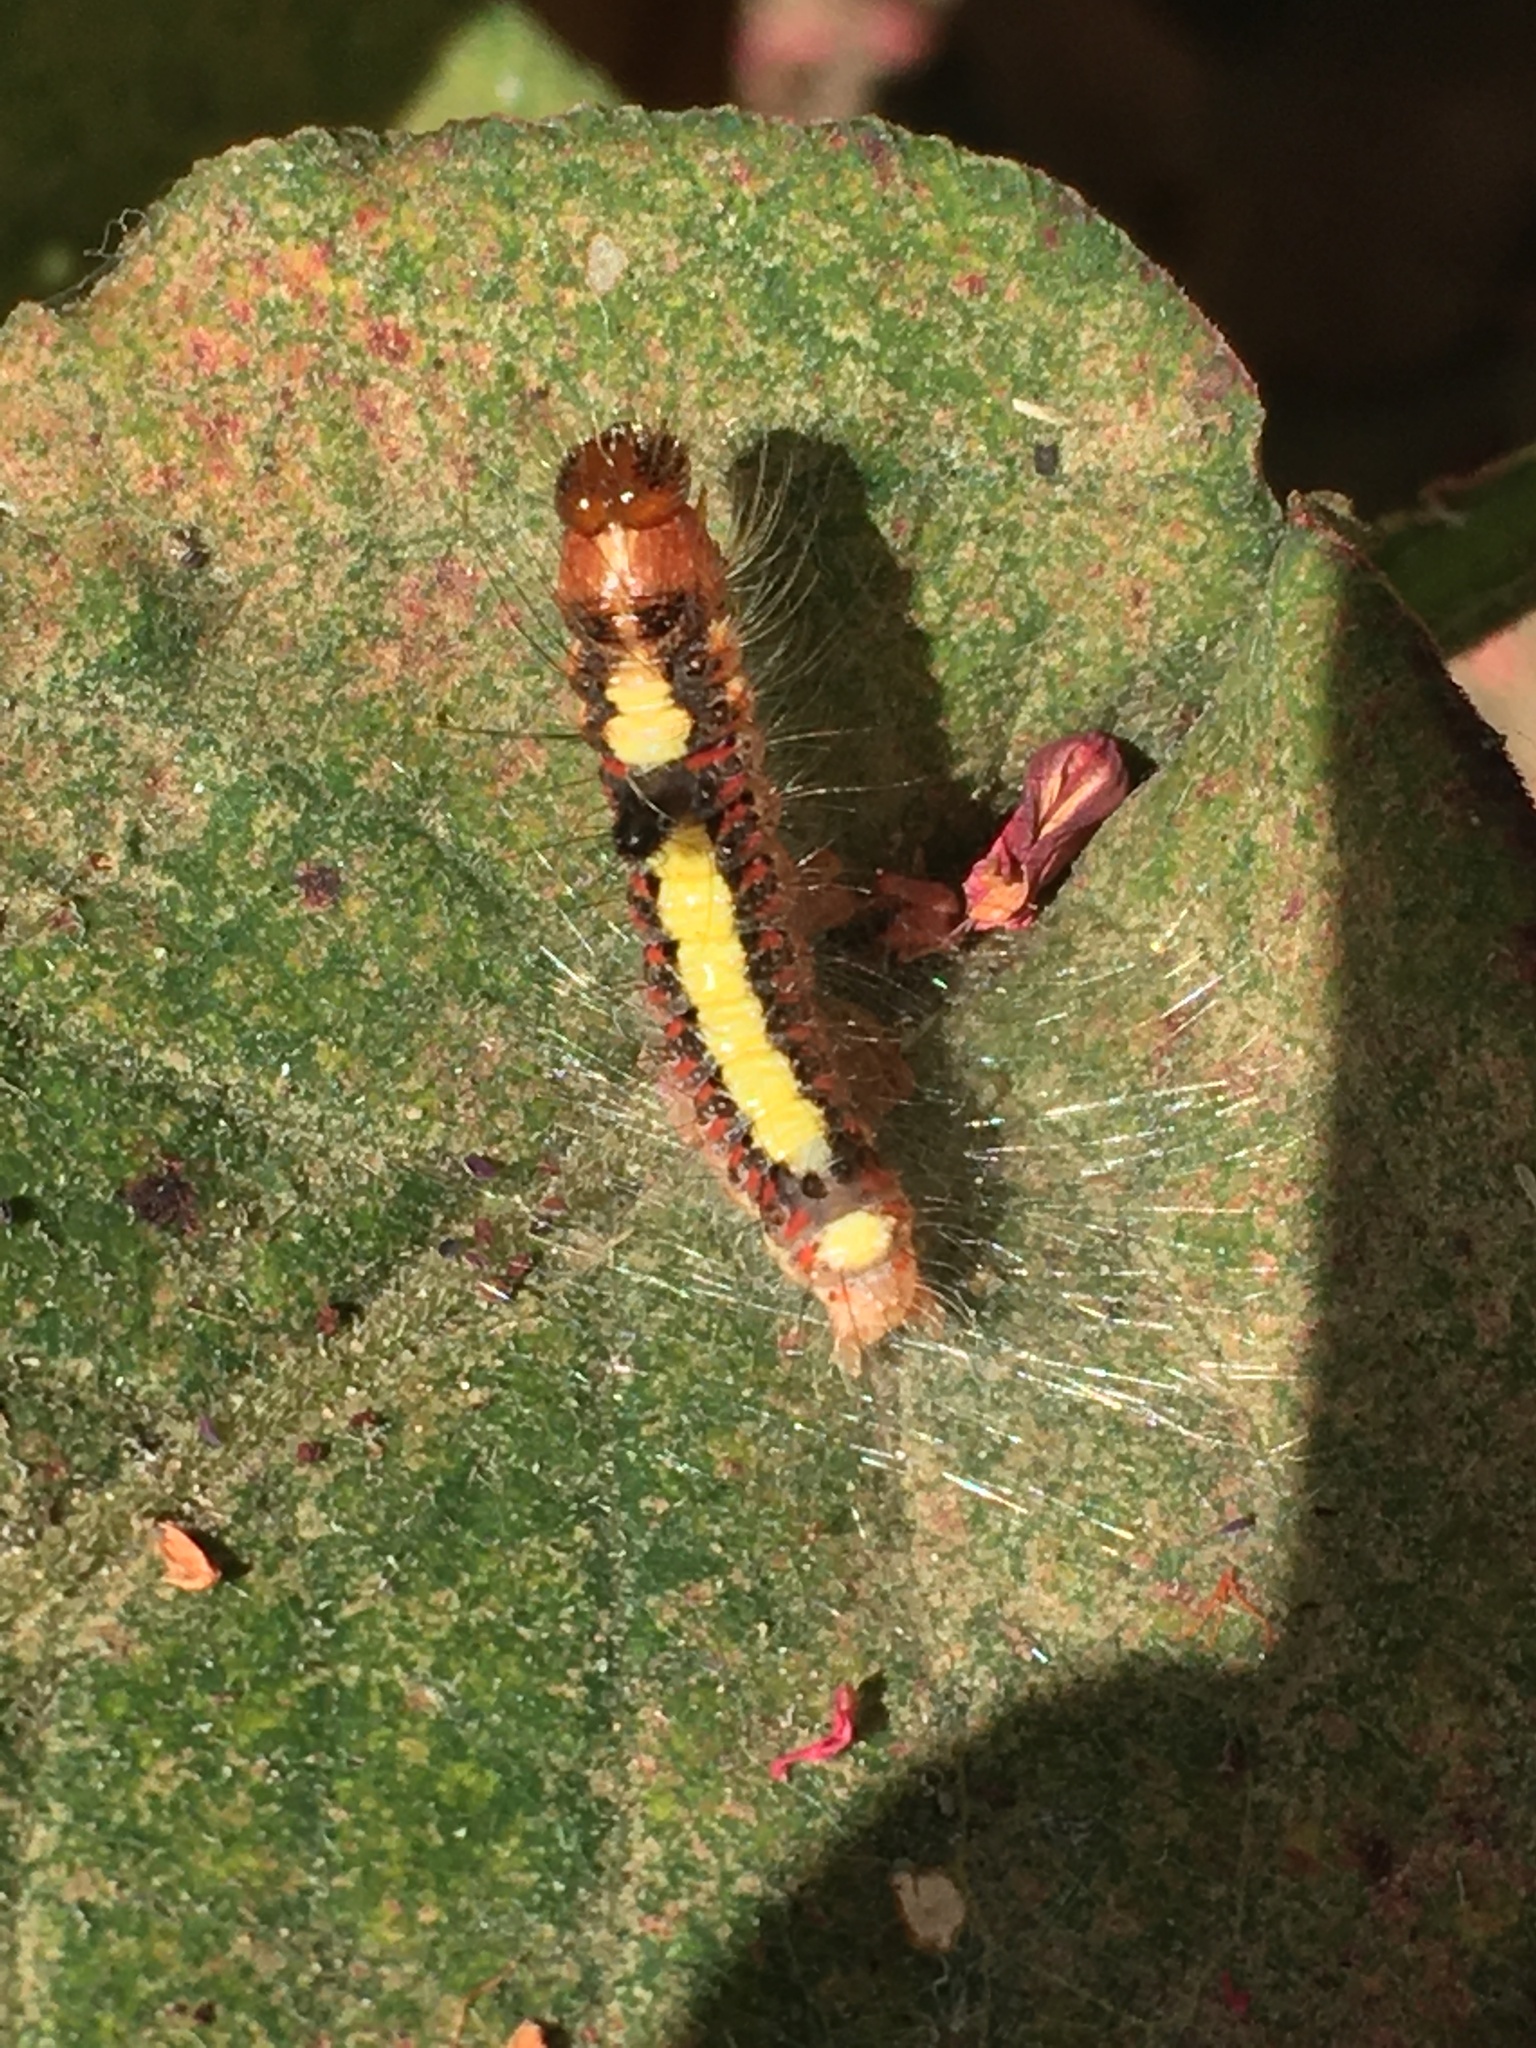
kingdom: Animalia
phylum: Arthropoda
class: Insecta
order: Lepidoptera
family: Noctuidae
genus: Acronicta
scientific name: Acronicta psi
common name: Grey dagger
